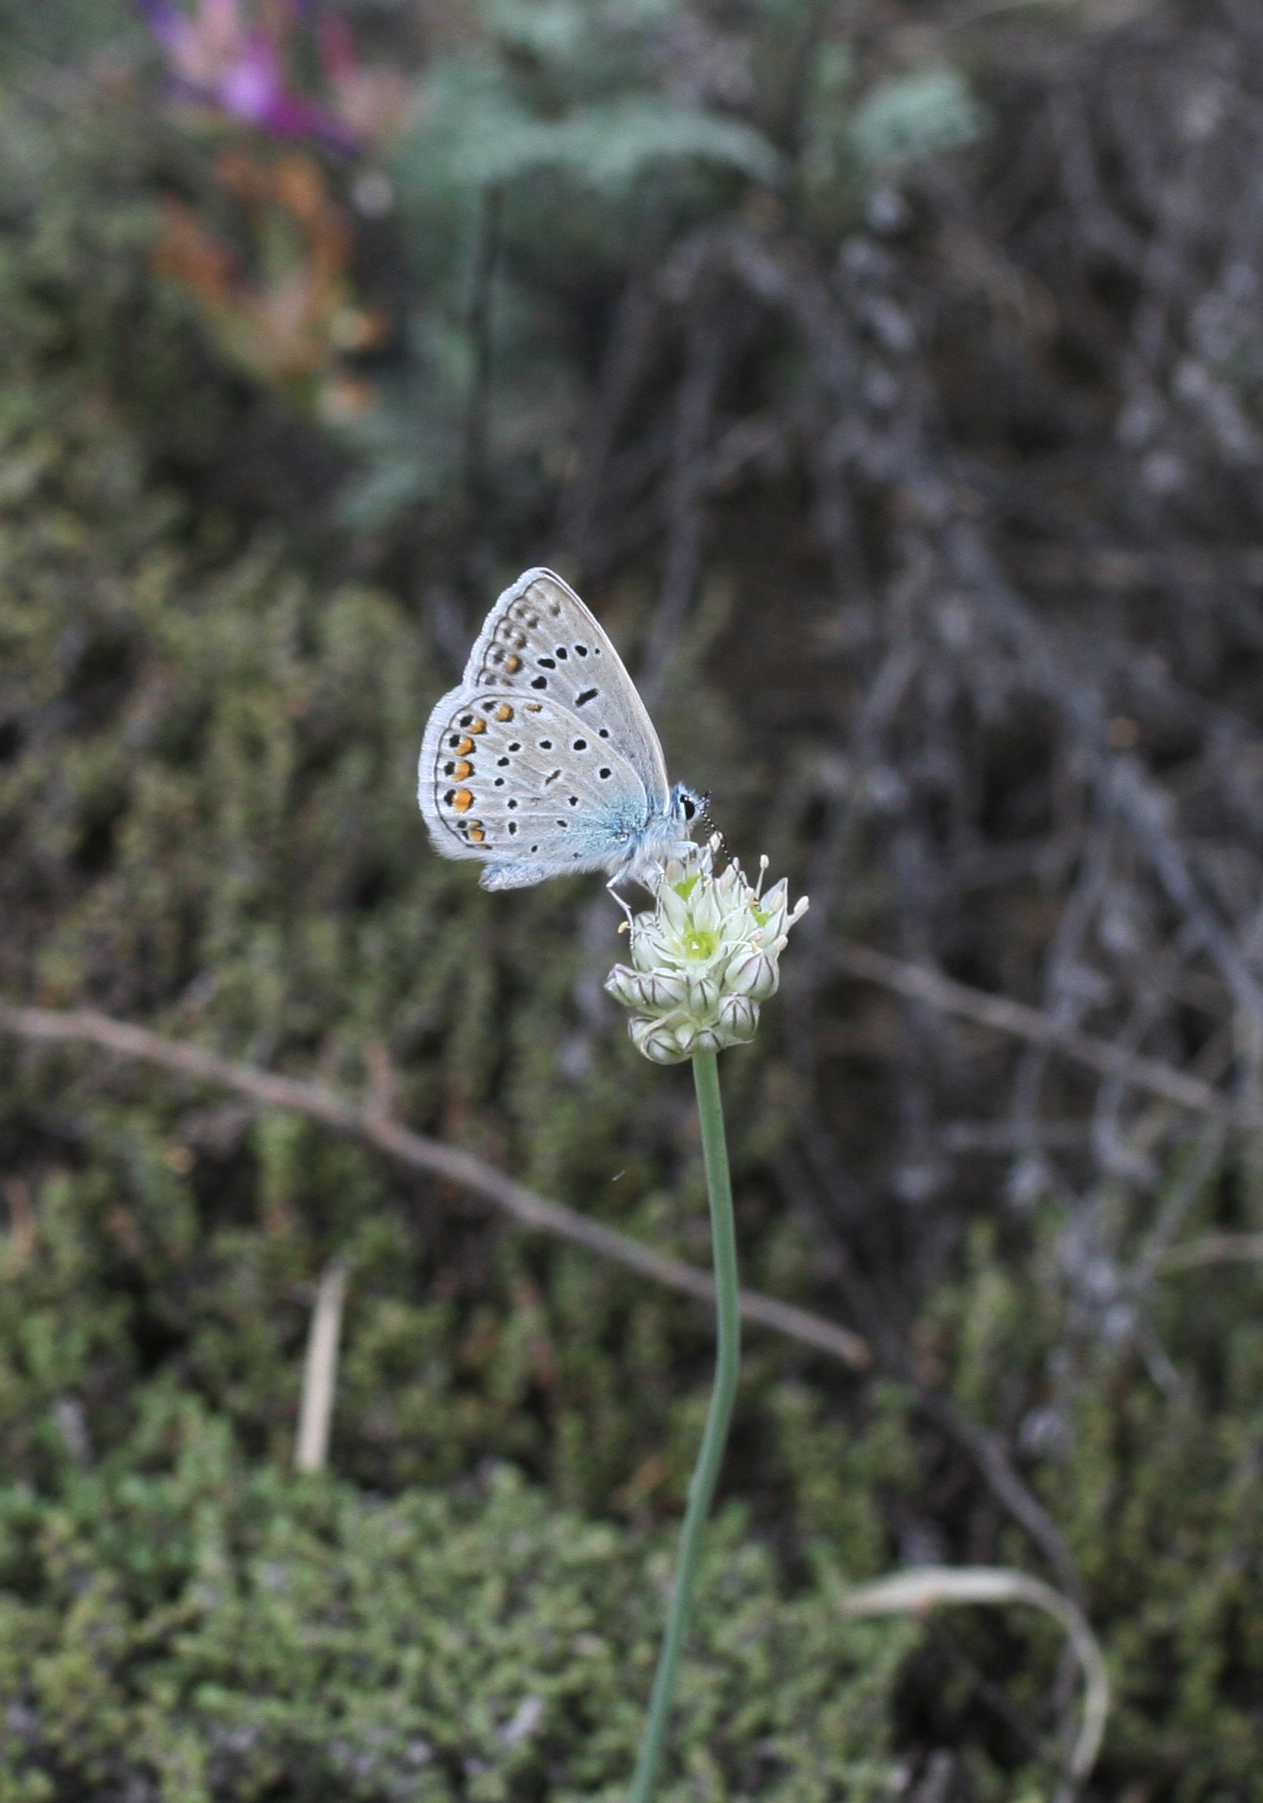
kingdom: Animalia
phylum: Arthropoda
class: Insecta
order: Lepidoptera
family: Lycaenidae
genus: Polyommatus
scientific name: Polyommatus icarus
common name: Common blue
